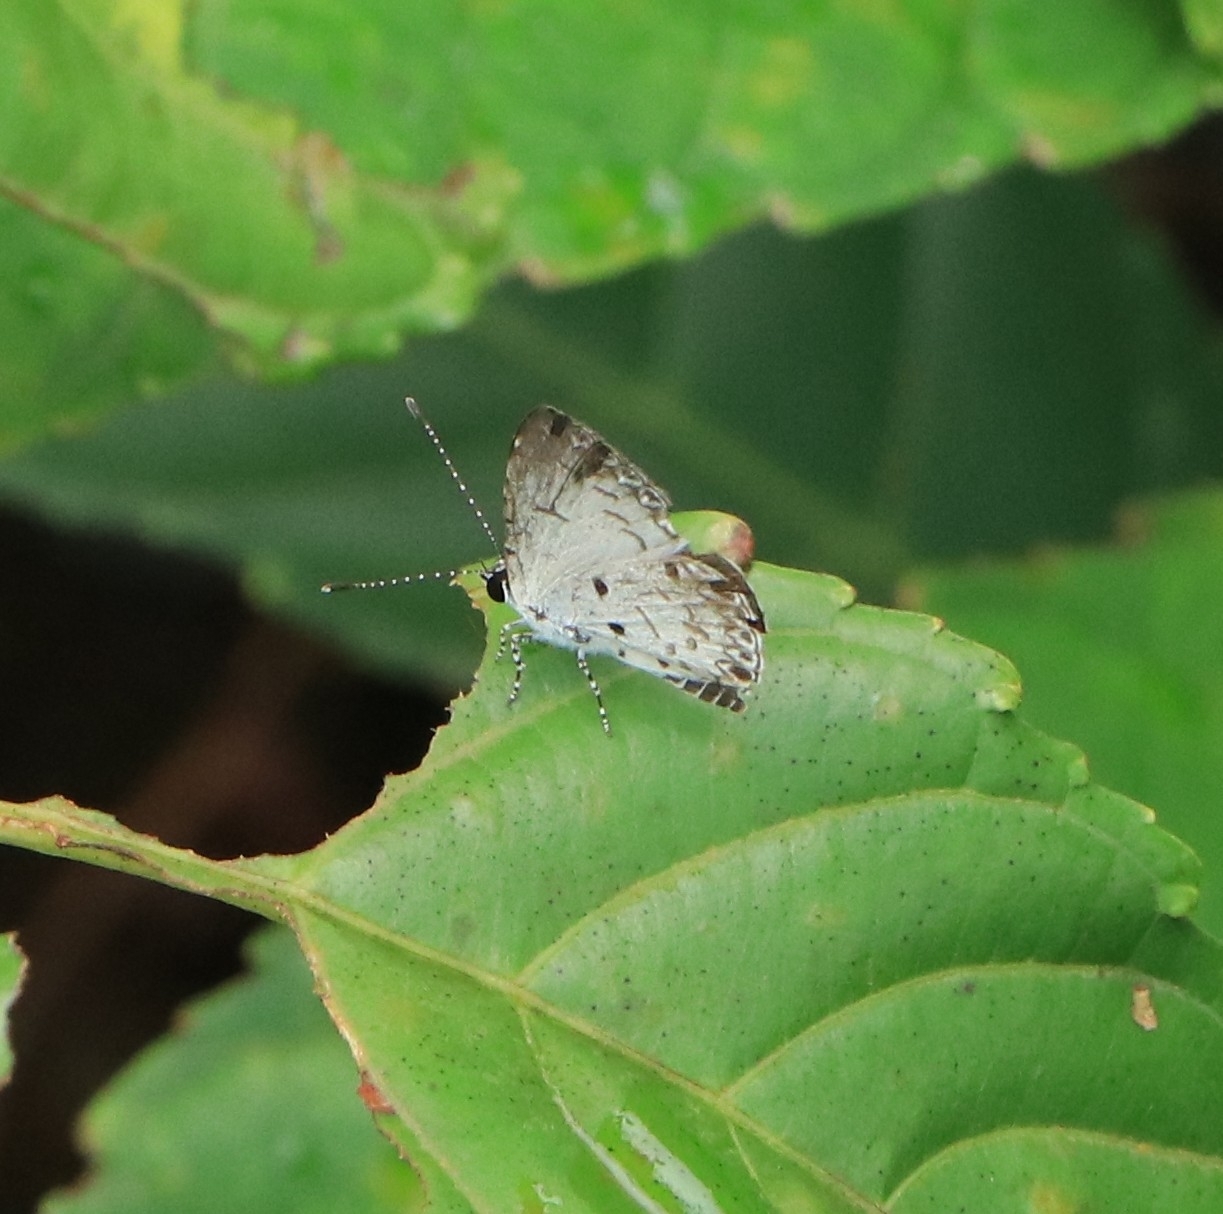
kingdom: Animalia
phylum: Arthropoda
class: Insecta
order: Lepidoptera
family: Lycaenidae
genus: Megisba
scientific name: Megisba malaya
